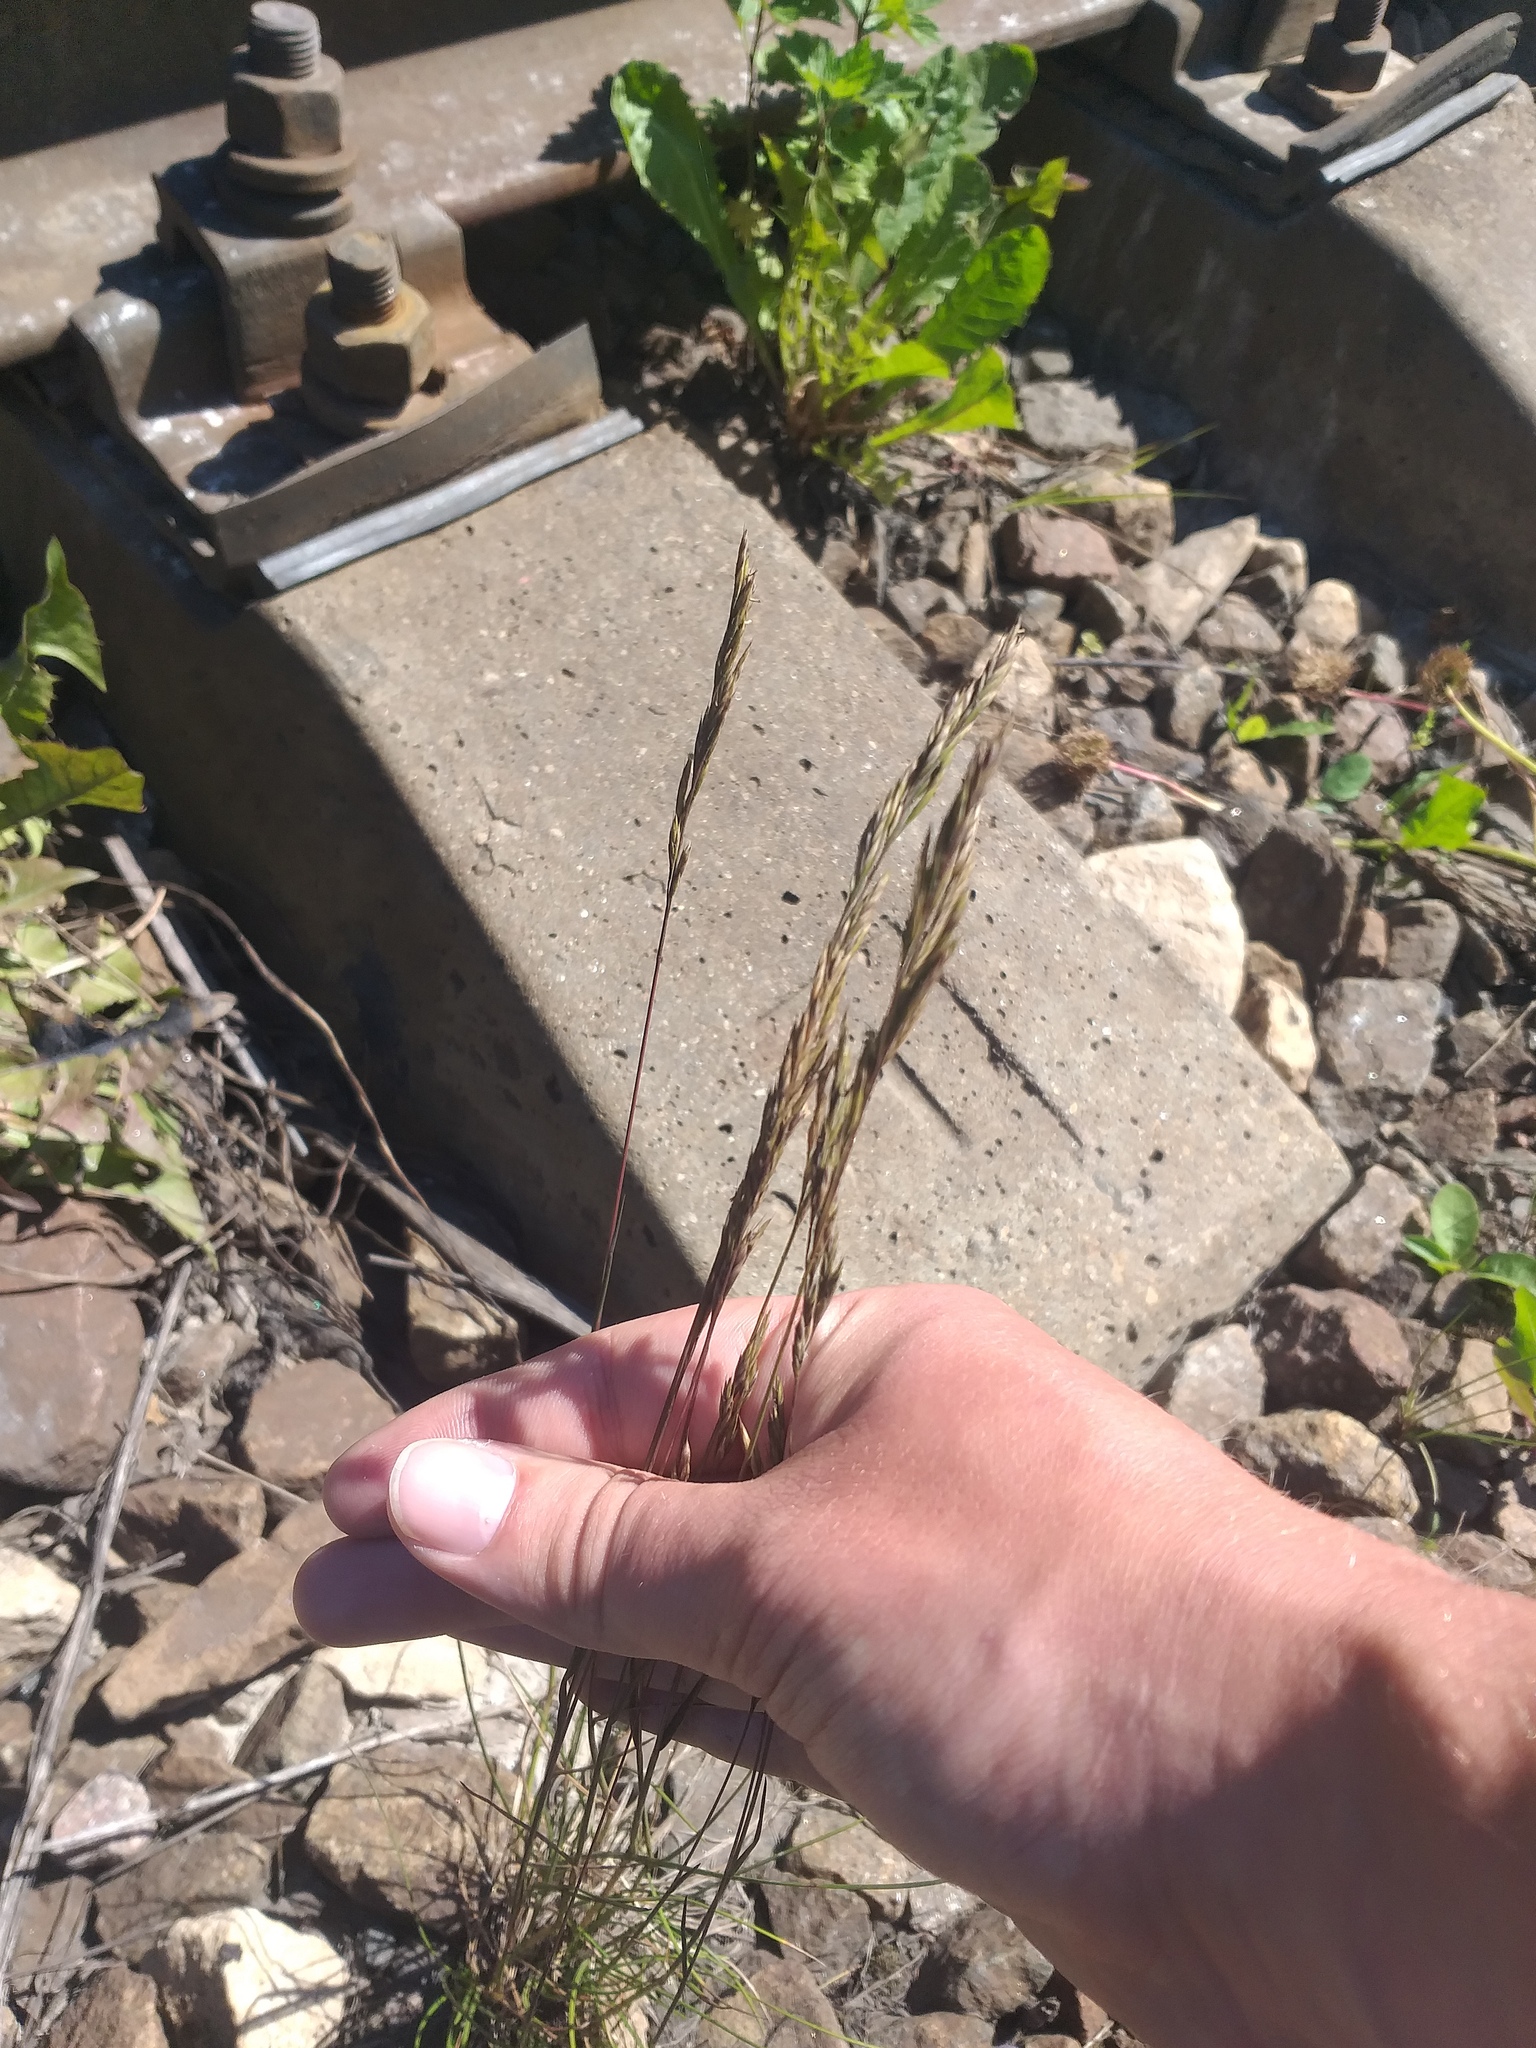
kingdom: Plantae
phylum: Tracheophyta
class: Liliopsida
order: Poales
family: Poaceae
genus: Festuca
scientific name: Festuca rubra
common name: Red fescue
